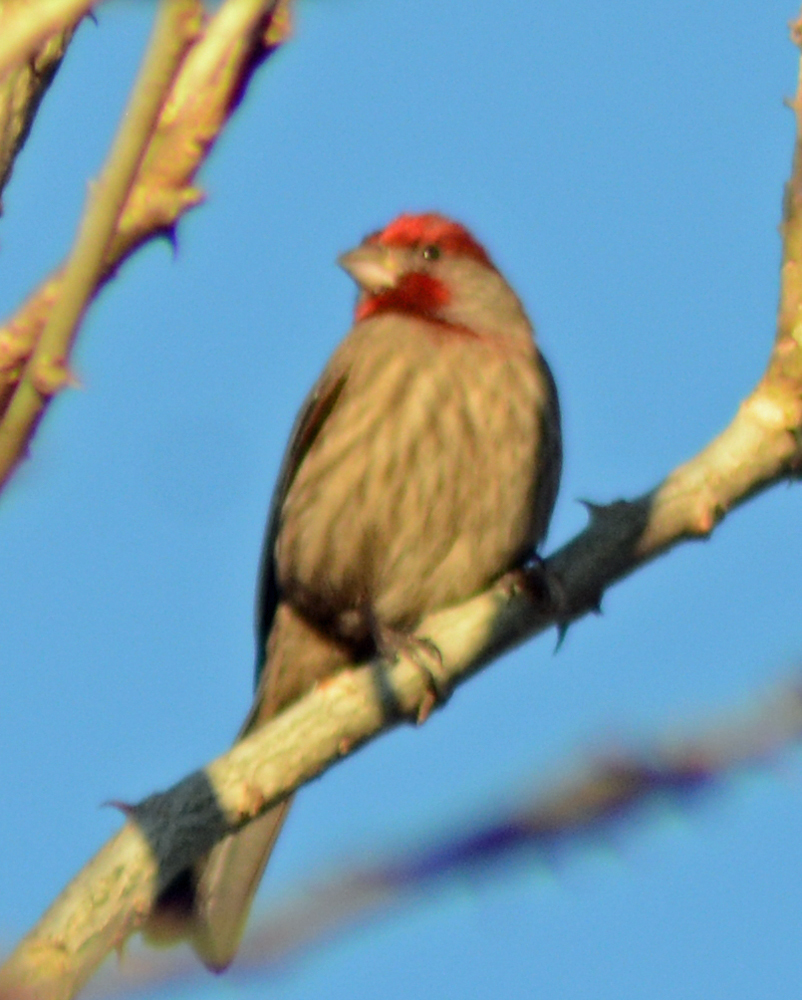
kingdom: Animalia
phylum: Chordata
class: Aves
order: Passeriformes
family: Fringillidae
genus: Haemorhous
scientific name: Haemorhous mexicanus
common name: House finch
